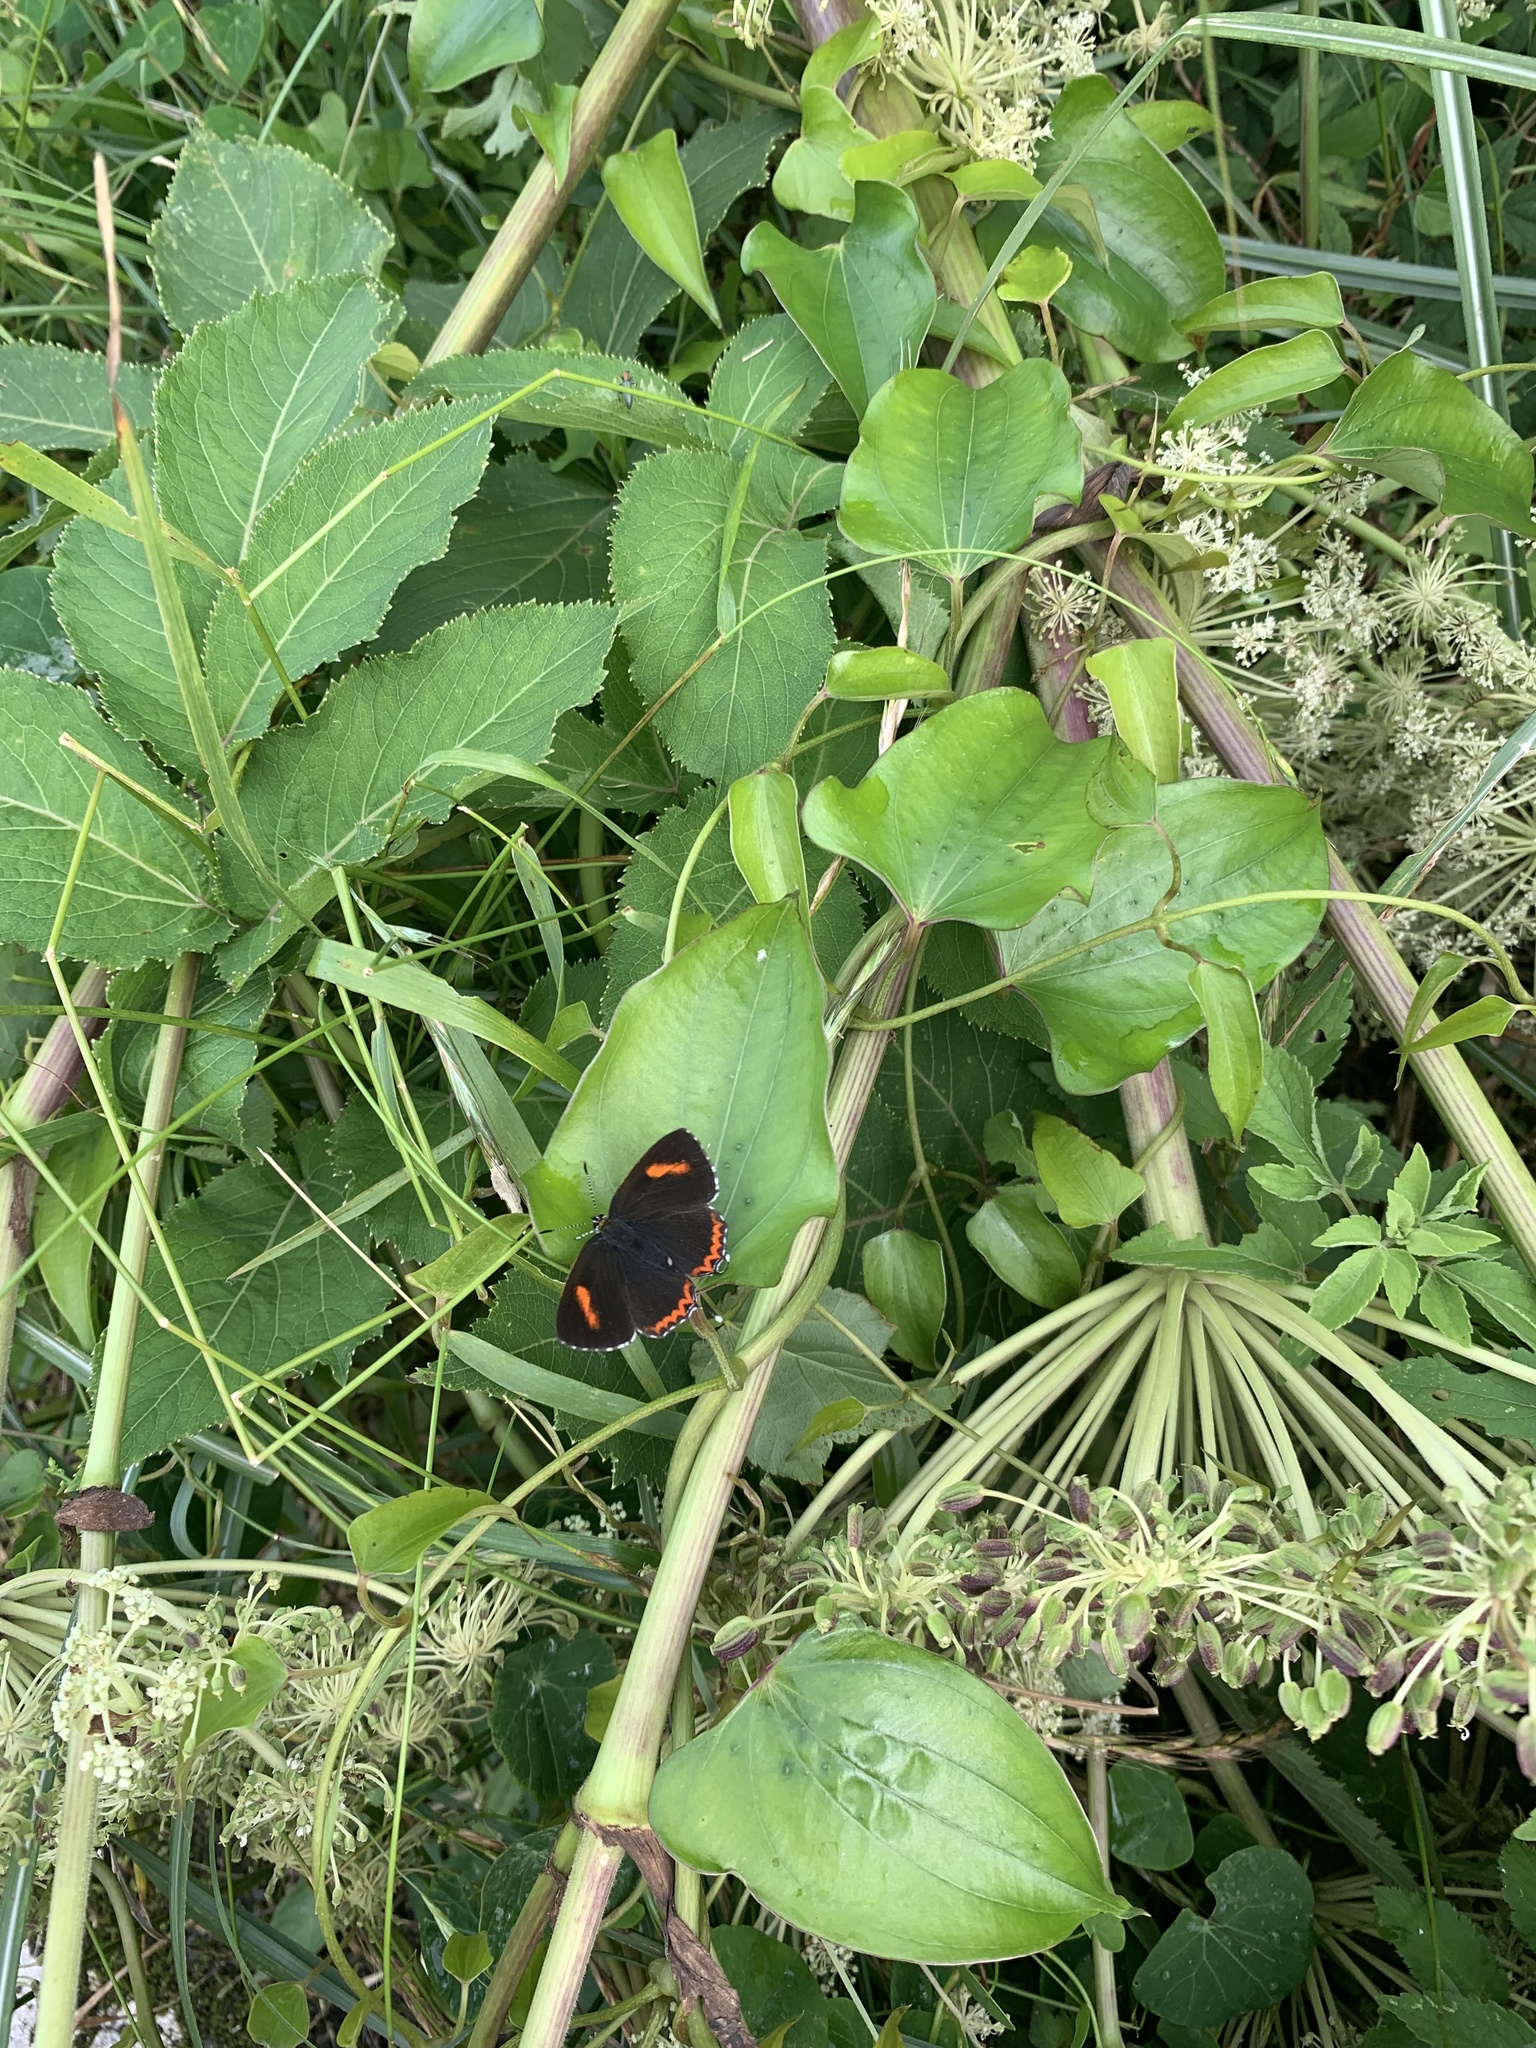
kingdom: Animalia
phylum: Arthropoda
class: Insecta
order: Lepidoptera
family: Lycaenidae
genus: Heliophorus
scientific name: Heliophorus ila
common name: Restricted purple sapphire
